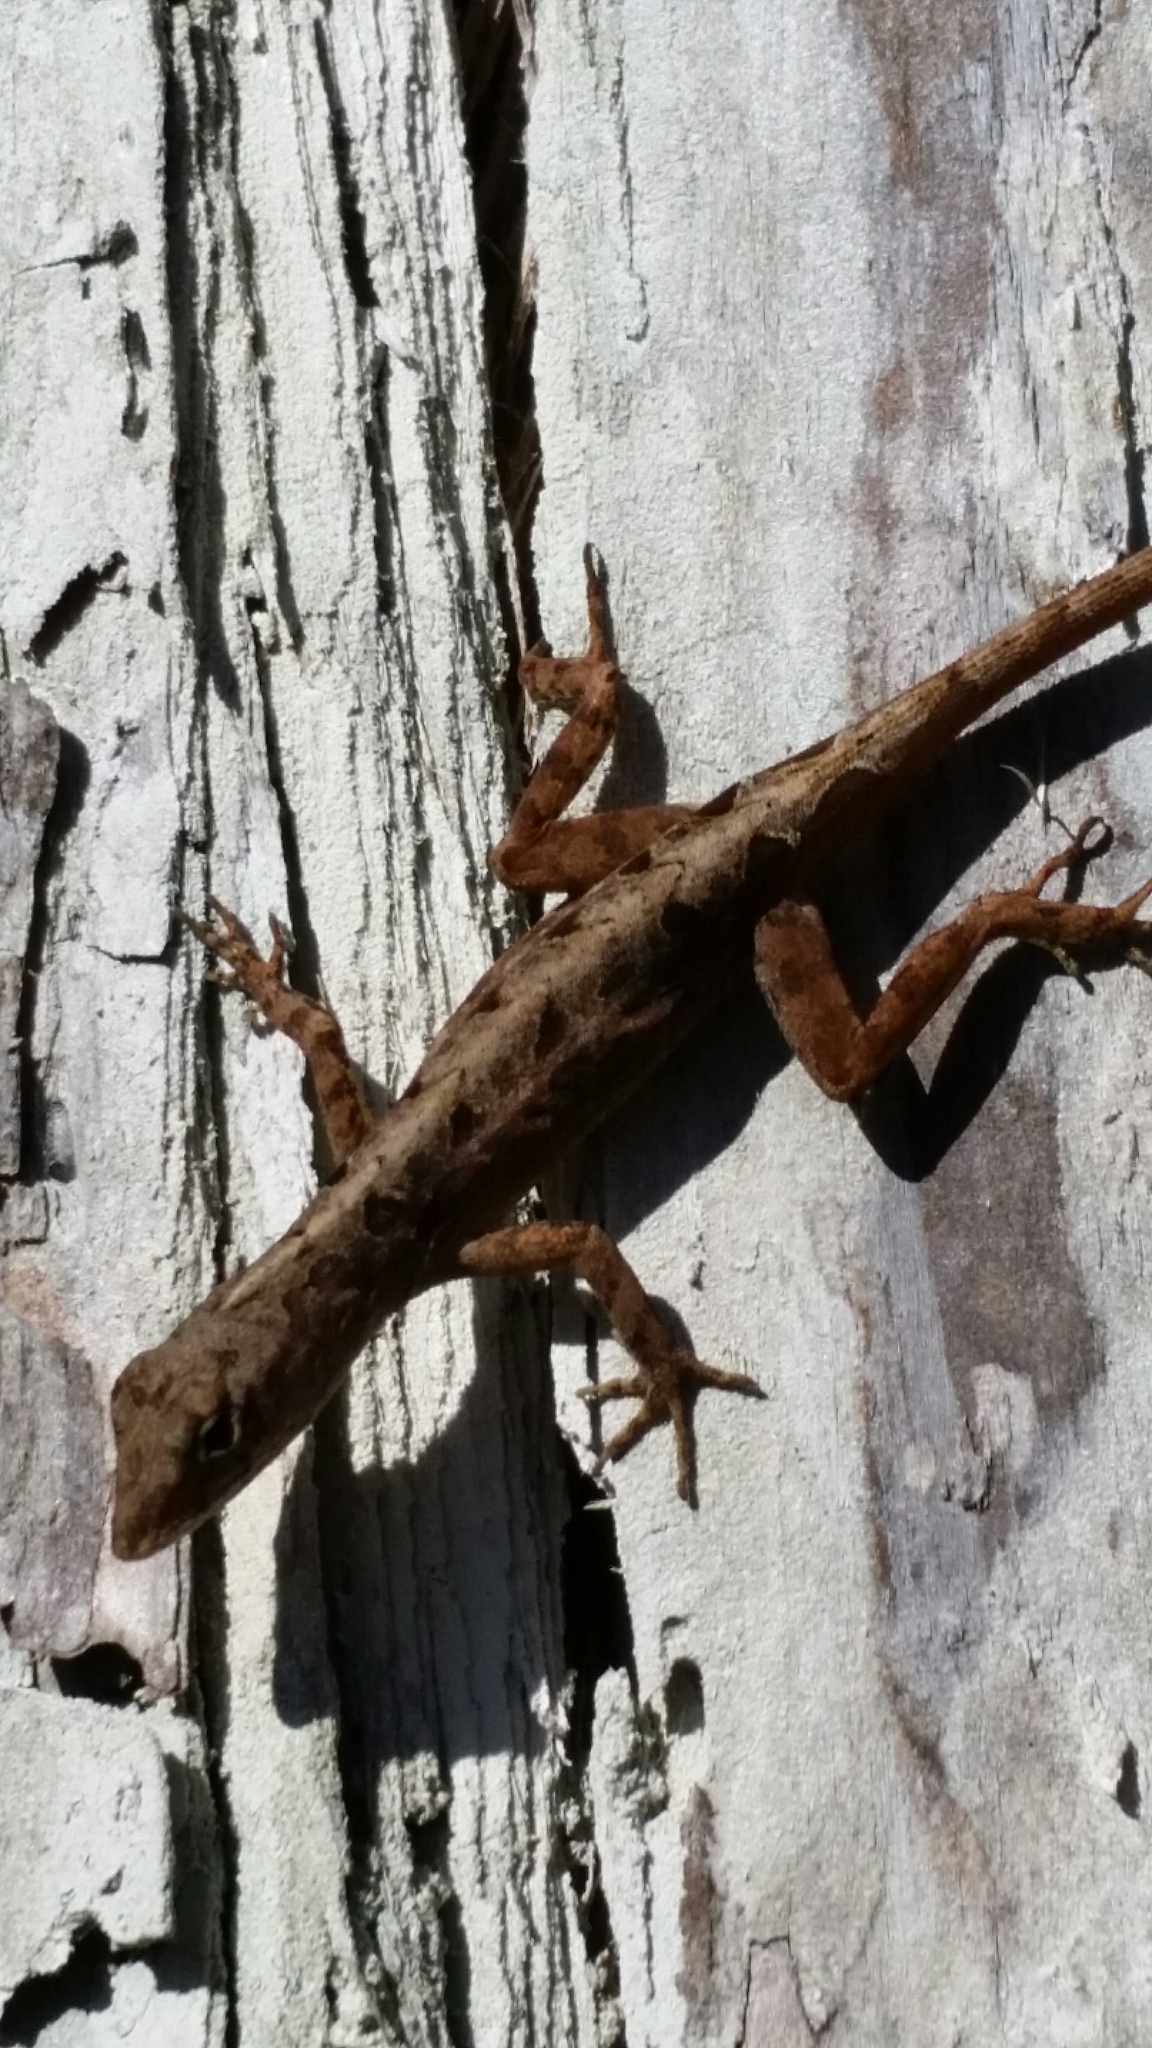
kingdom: Animalia
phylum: Chordata
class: Squamata
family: Dactyloidae
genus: Anolis
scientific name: Anolis sagrei
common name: Brown anole
